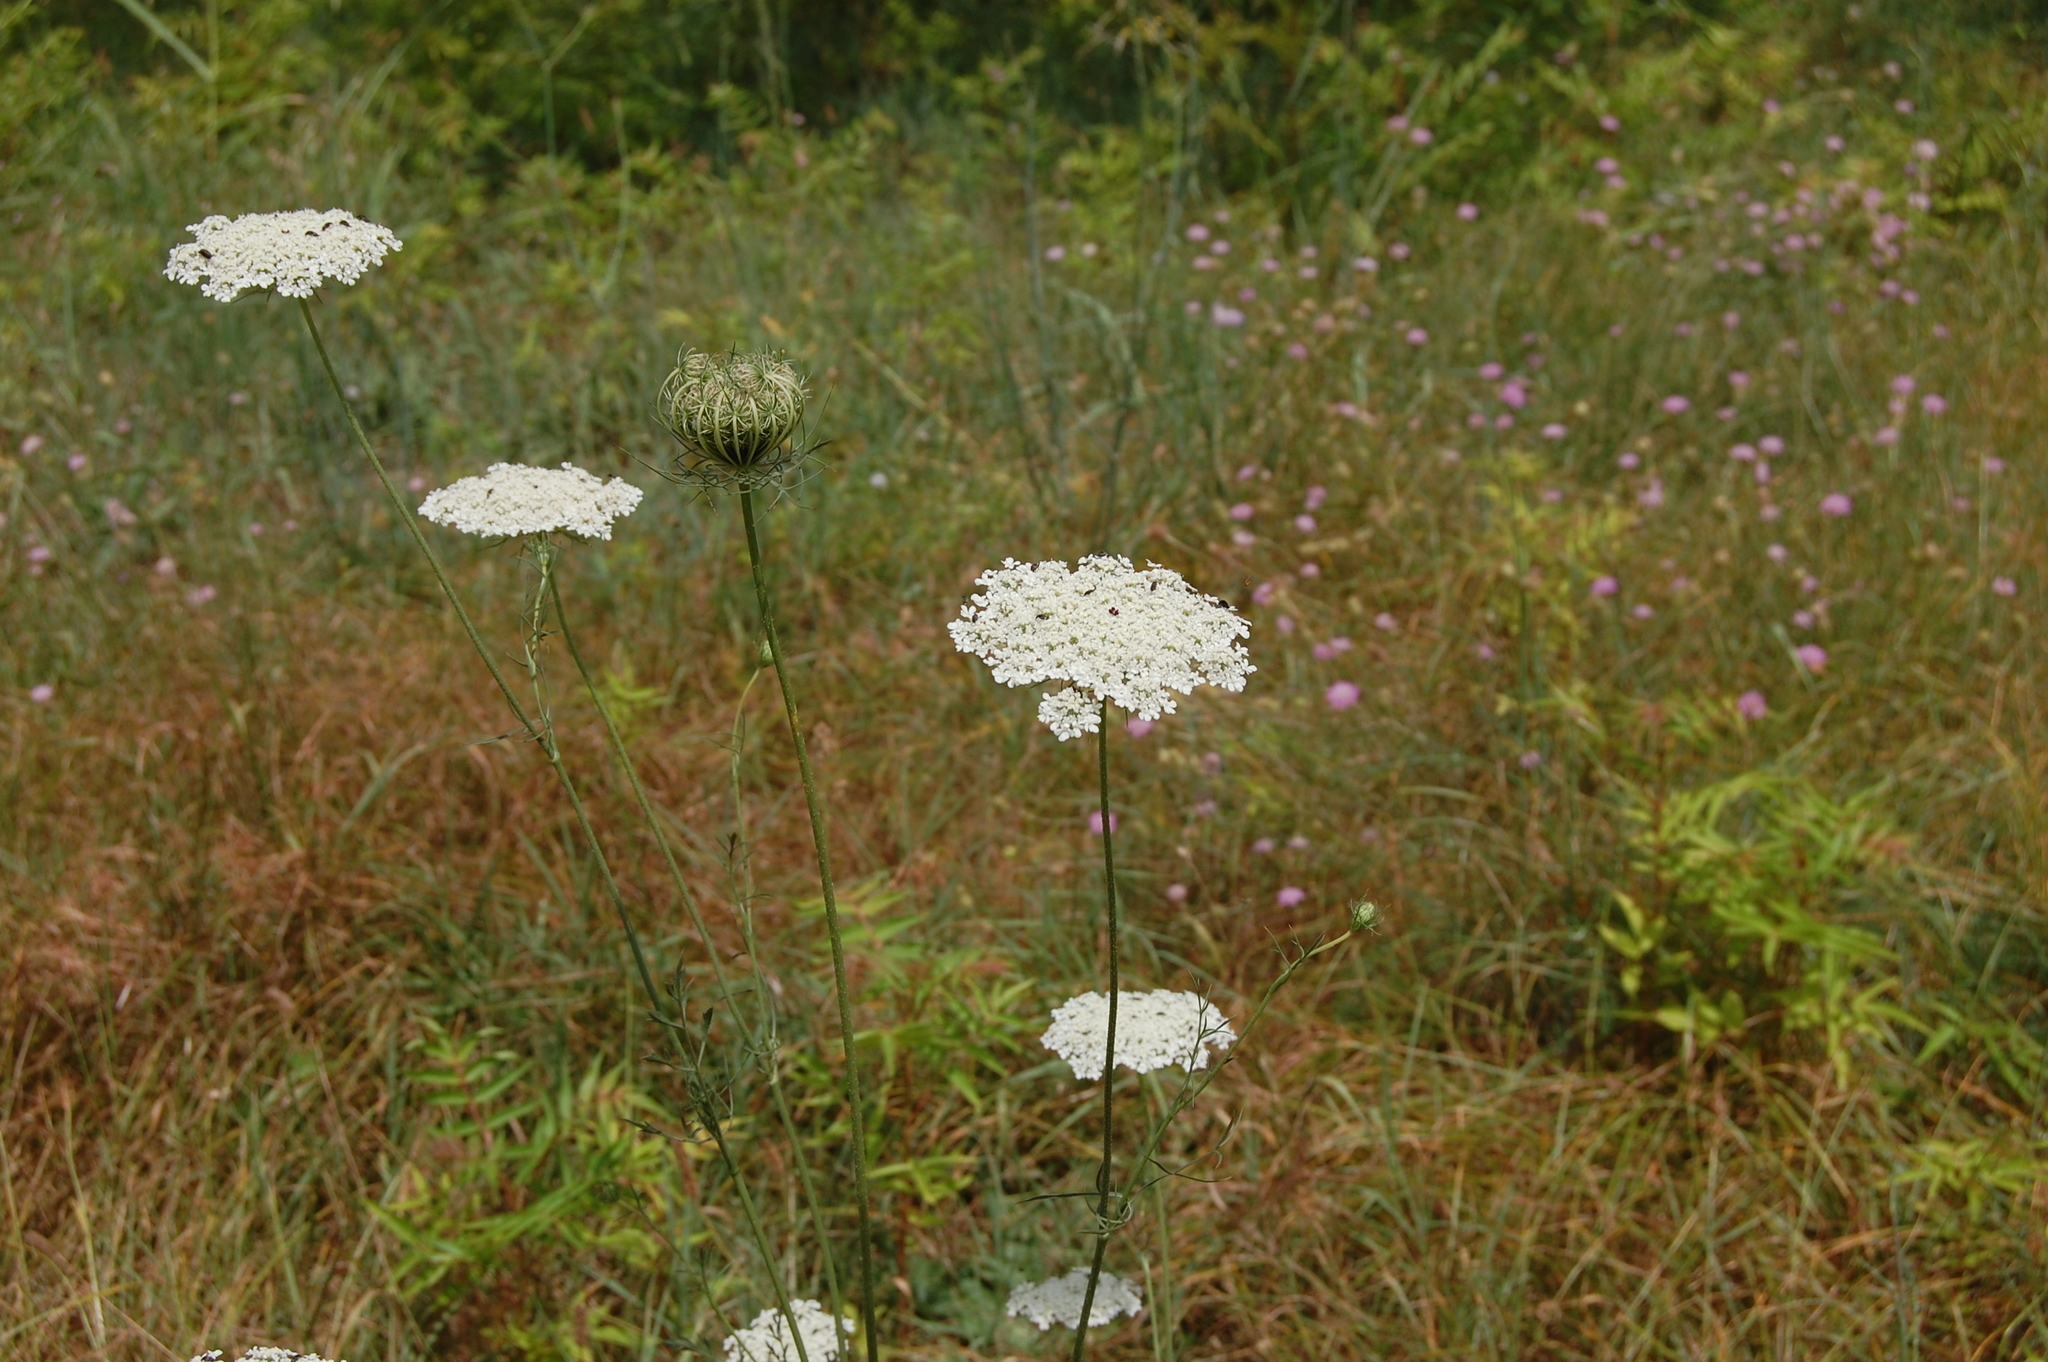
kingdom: Plantae
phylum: Tracheophyta
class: Magnoliopsida
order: Apiales
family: Apiaceae
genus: Daucus
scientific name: Daucus carota
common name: Wild carrot
